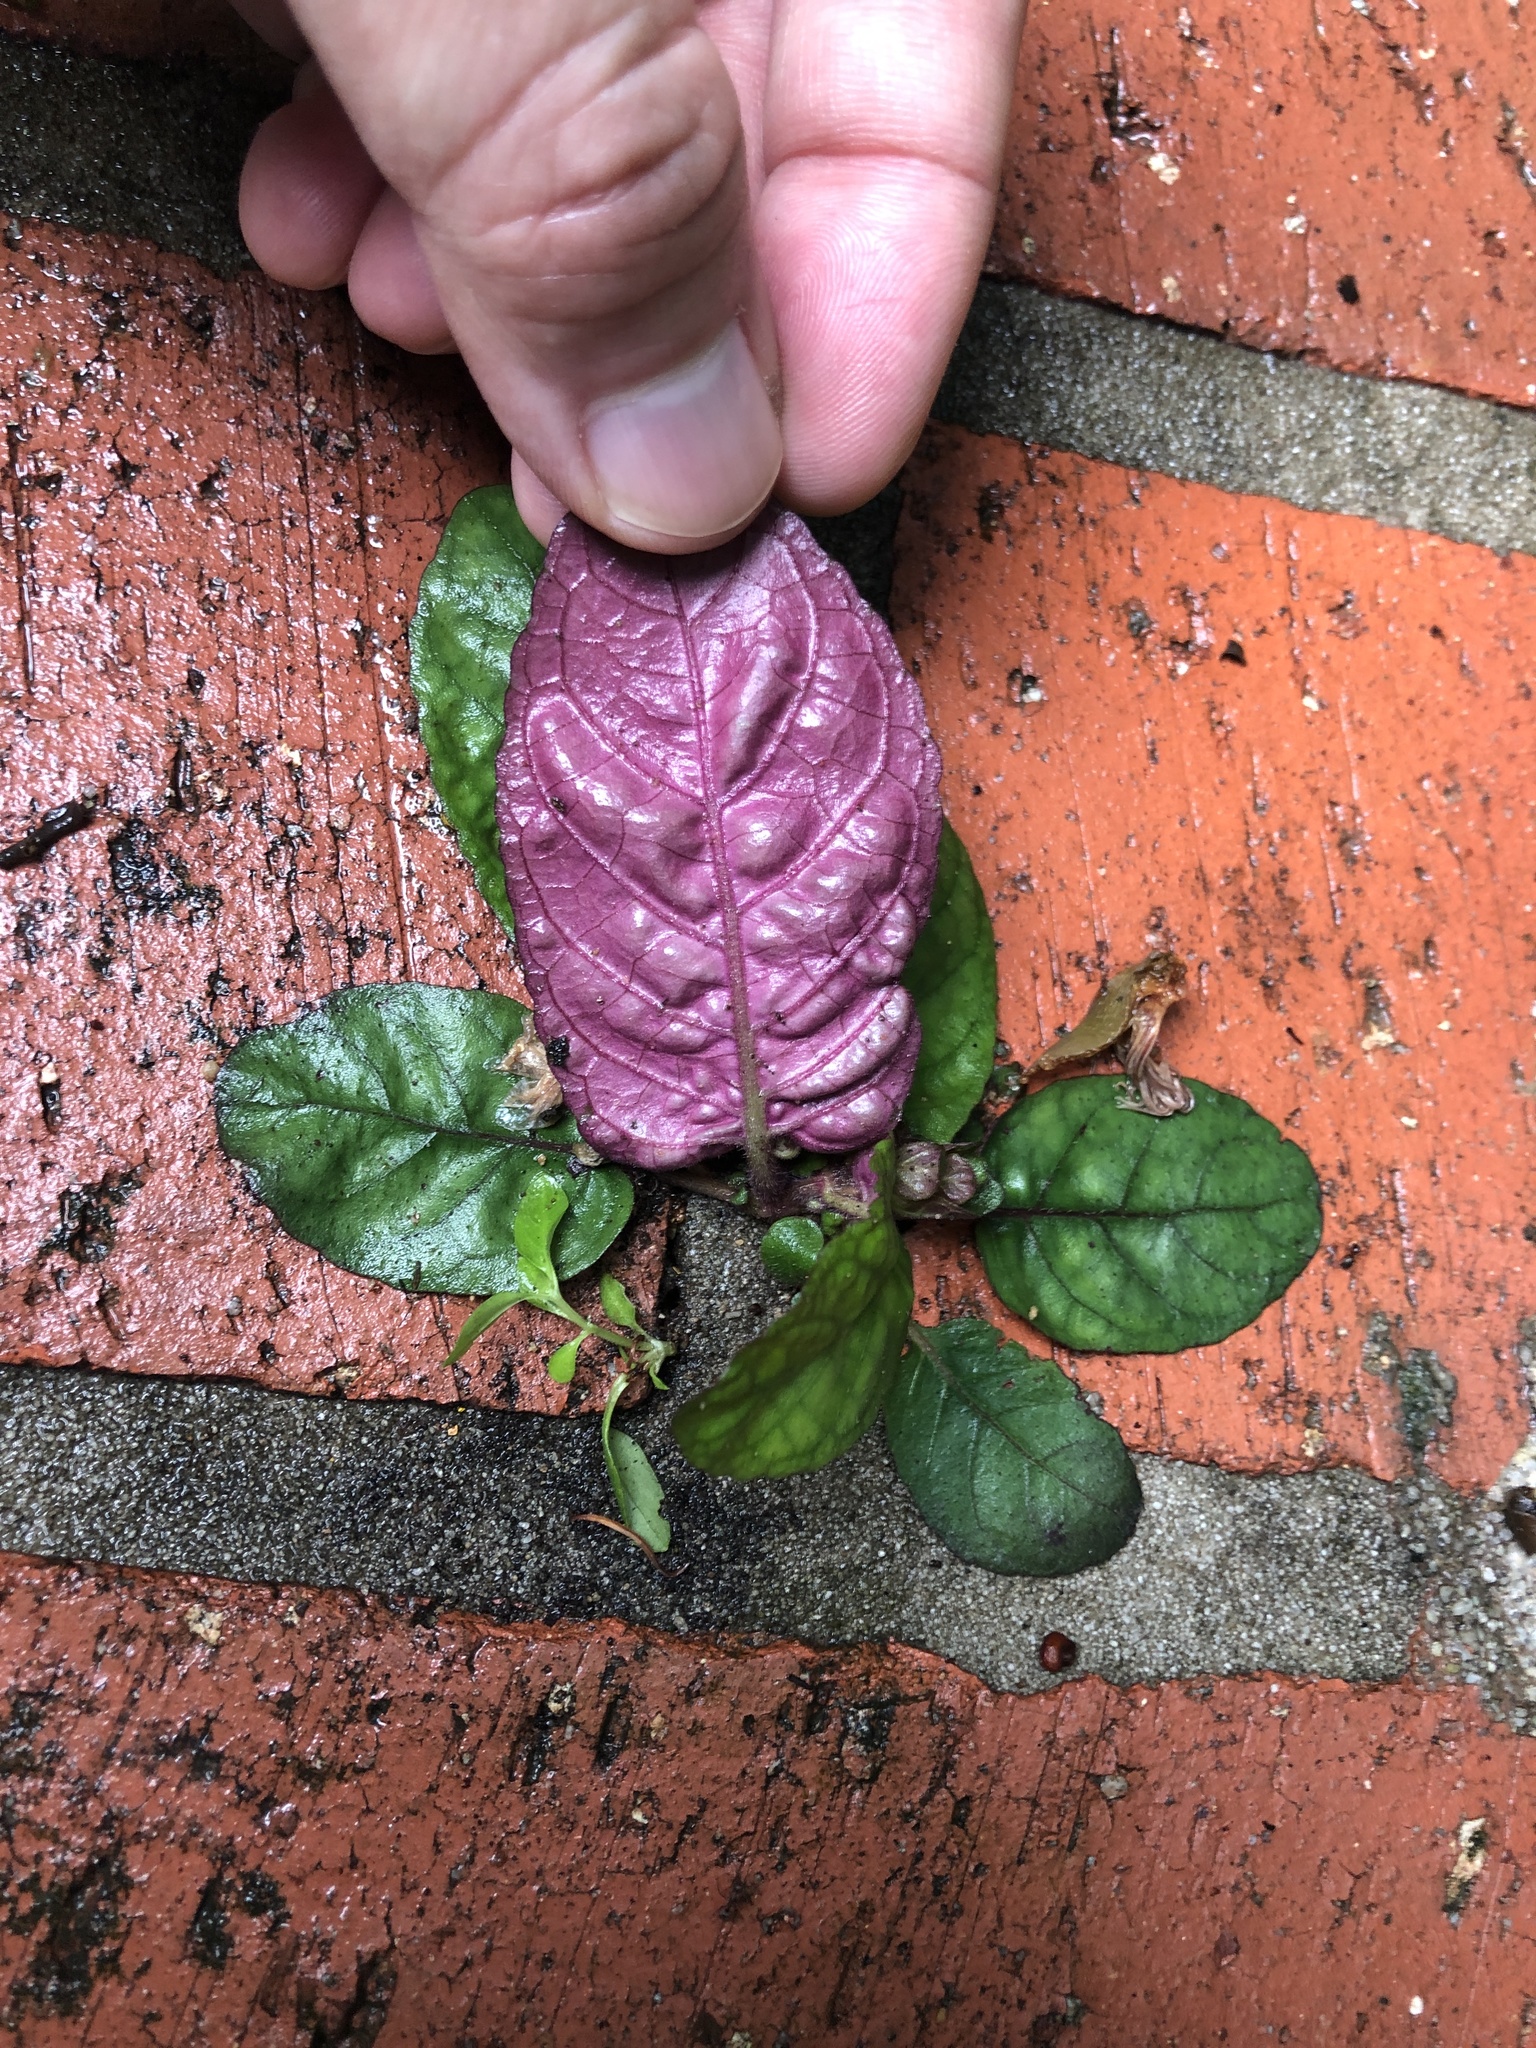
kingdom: Plantae
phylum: Tracheophyta
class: Magnoliopsida
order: Lamiales
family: Acanthaceae
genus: Strobilanthes
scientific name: Strobilanthes reptans
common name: Acanthaceae
